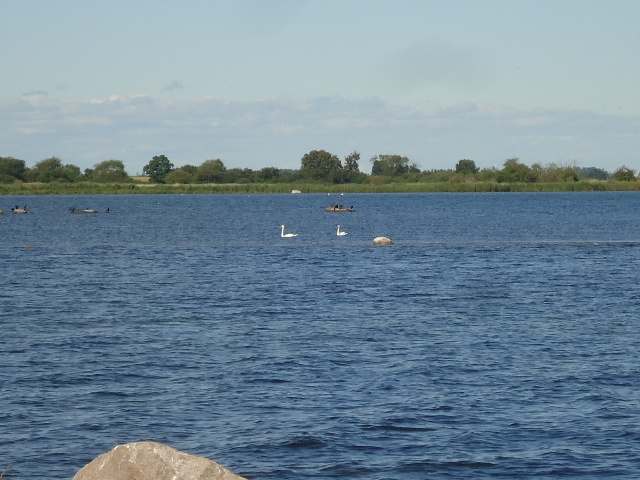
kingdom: Animalia
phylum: Chordata
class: Aves
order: Anseriformes
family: Anatidae
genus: Cygnus
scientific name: Cygnus cygnus
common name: Whooper swan
